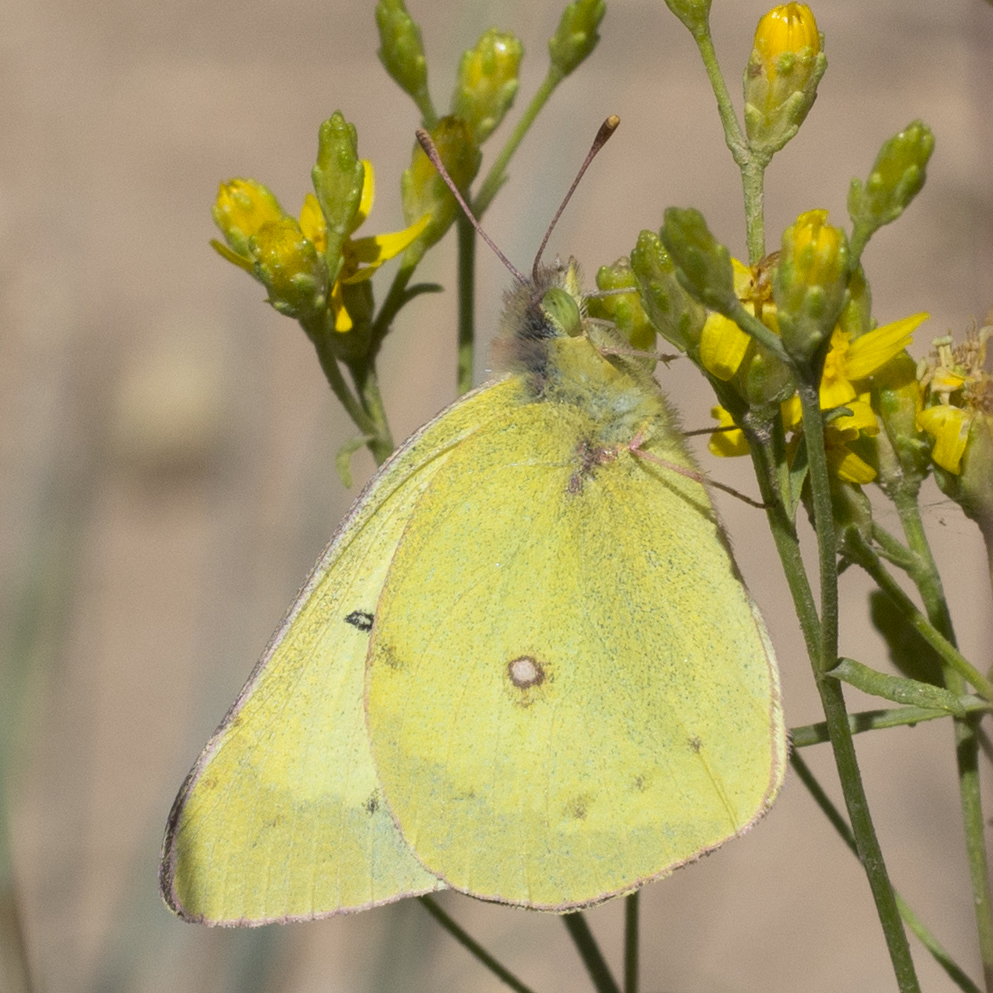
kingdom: Animalia
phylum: Arthropoda
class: Insecta
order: Lepidoptera
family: Pieridae
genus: Colias
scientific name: Colias philodice
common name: Clouded sulphur
